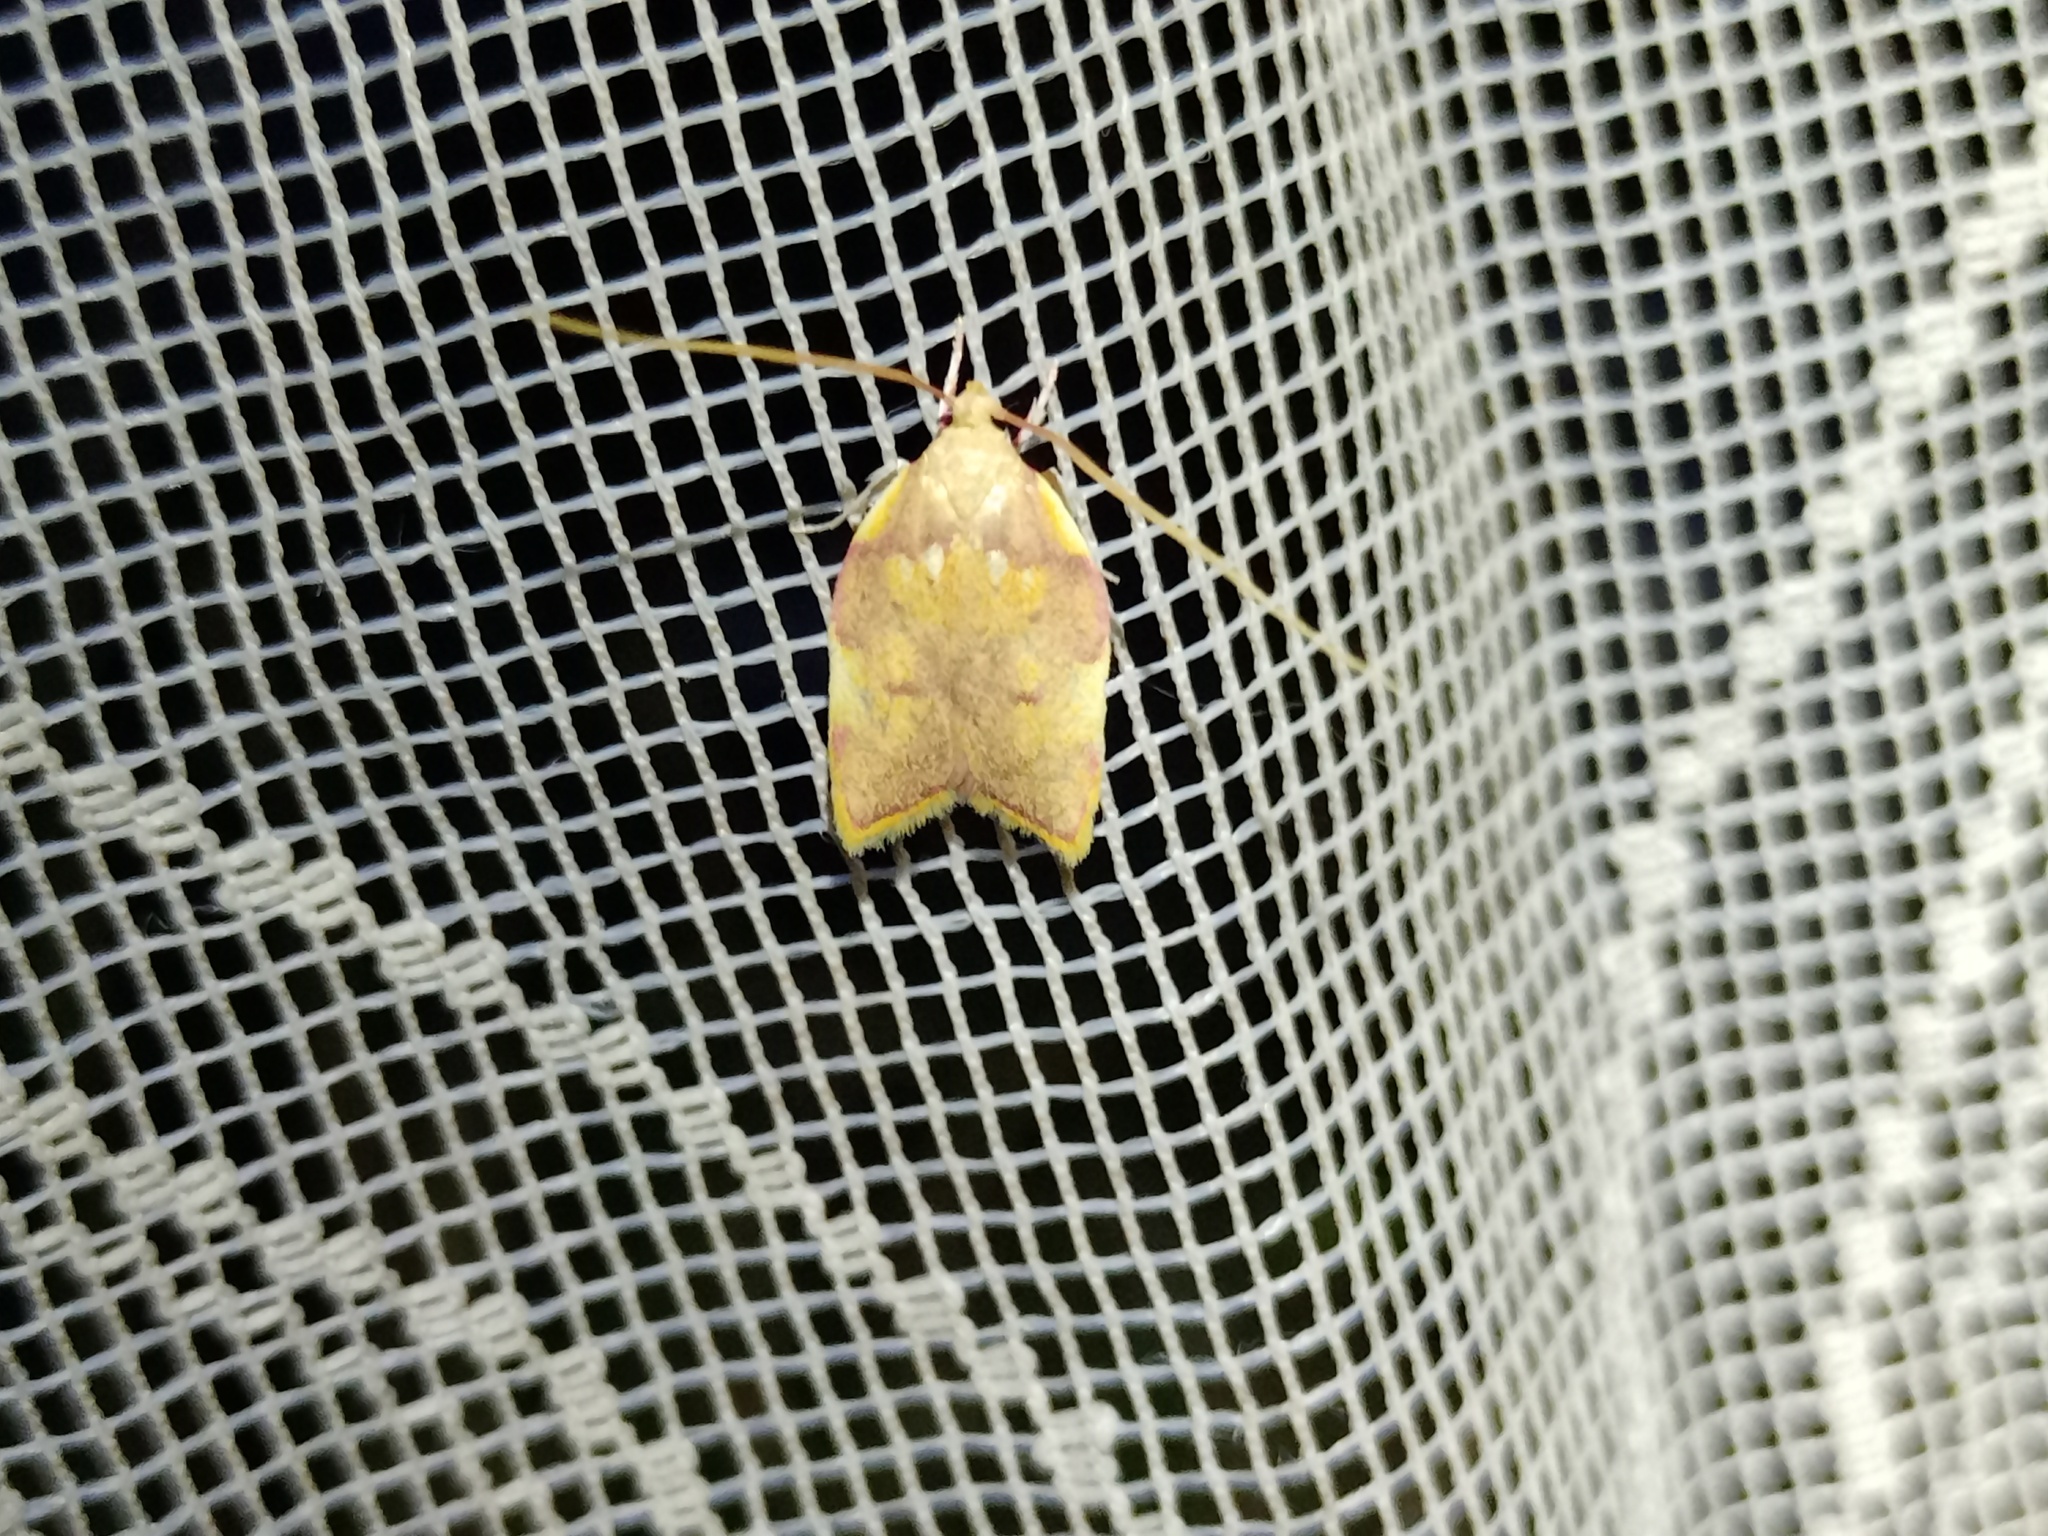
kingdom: Animalia
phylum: Arthropoda
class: Insecta
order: Lepidoptera
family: Peleopodidae
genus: Carcina
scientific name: Carcina quercana
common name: Moth
